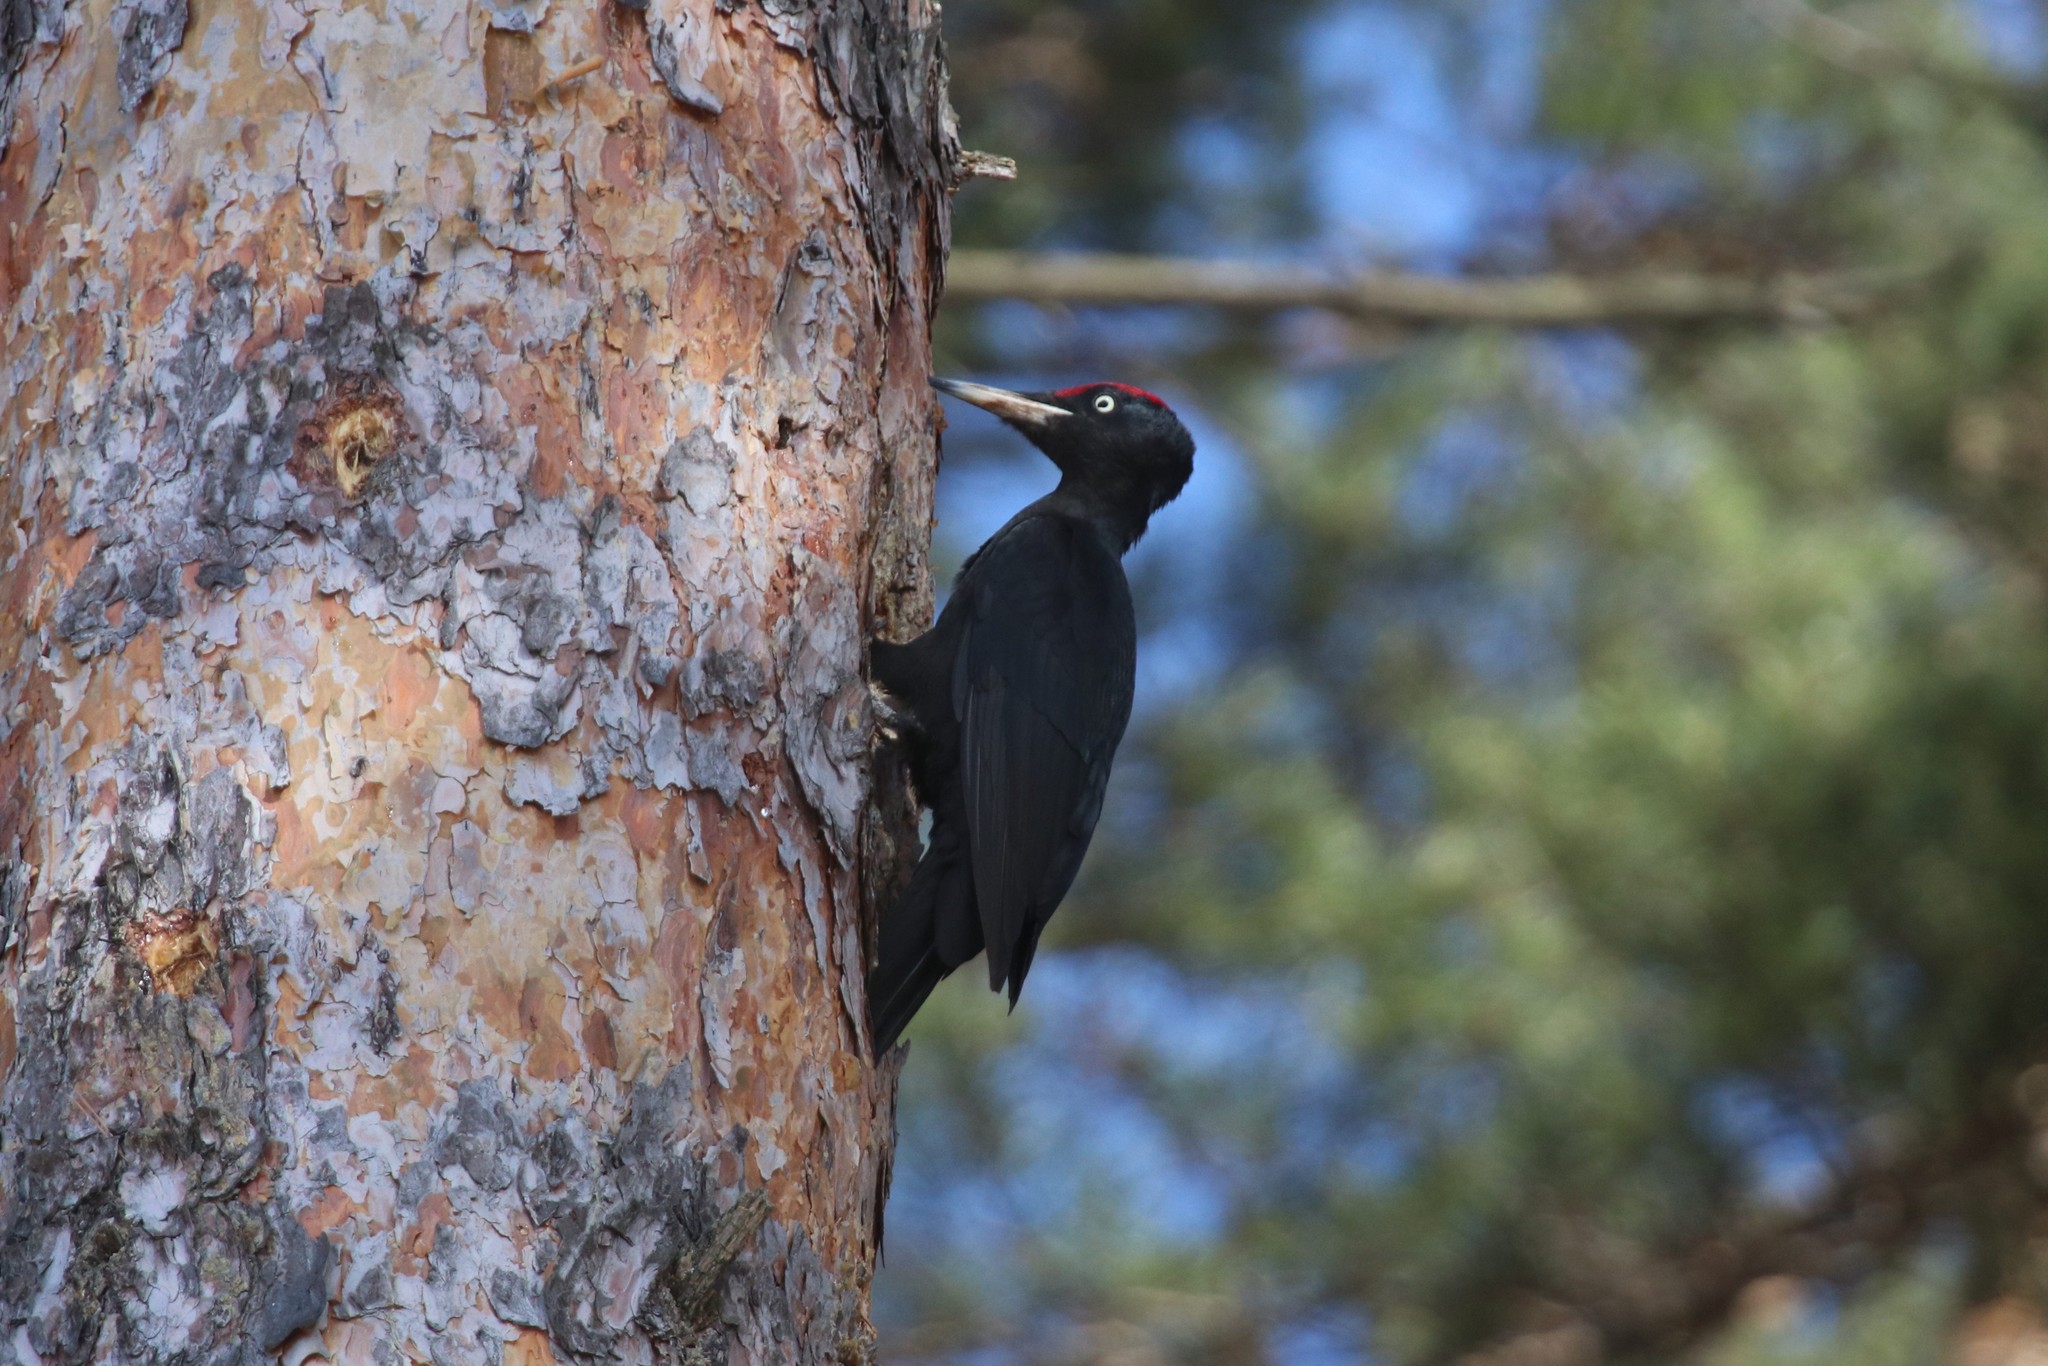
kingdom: Animalia
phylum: Chordata
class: Aves
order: Piciformes
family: Picidae
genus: Dryocopus
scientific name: Dryocopus martius
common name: Black woodpecker
